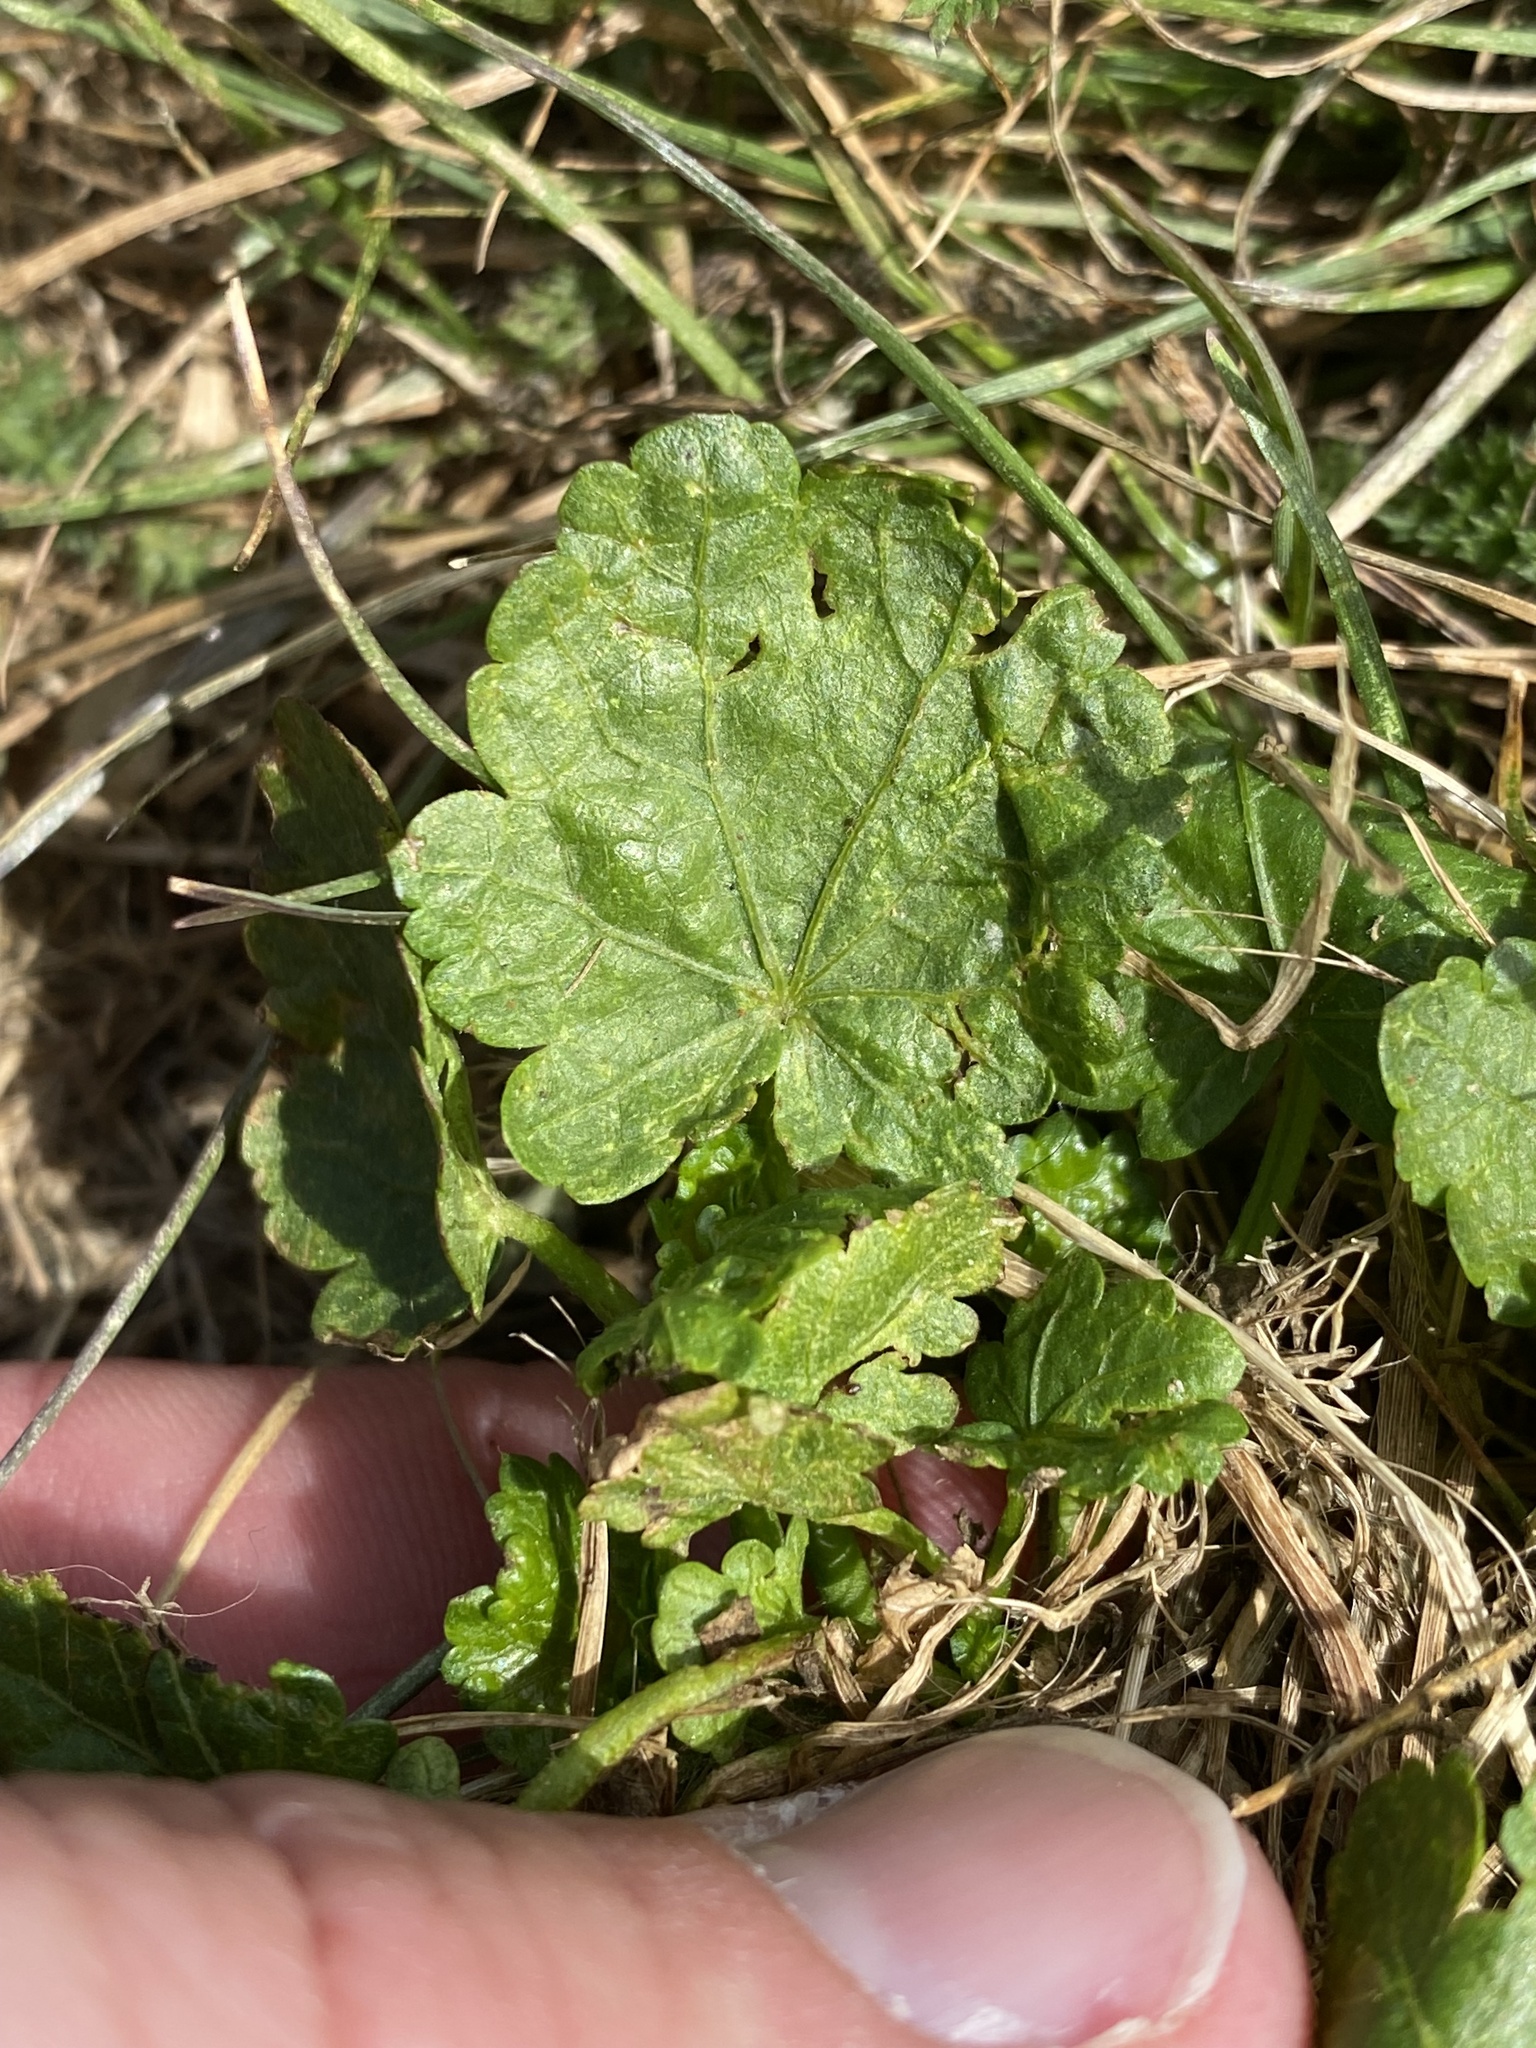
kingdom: Plantae
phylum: Tracheophyta
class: Magnoliopsida
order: Malvales
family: Malvaceae
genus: Modiola
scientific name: Modiola caroliniana
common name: Carolina bristlemallow
